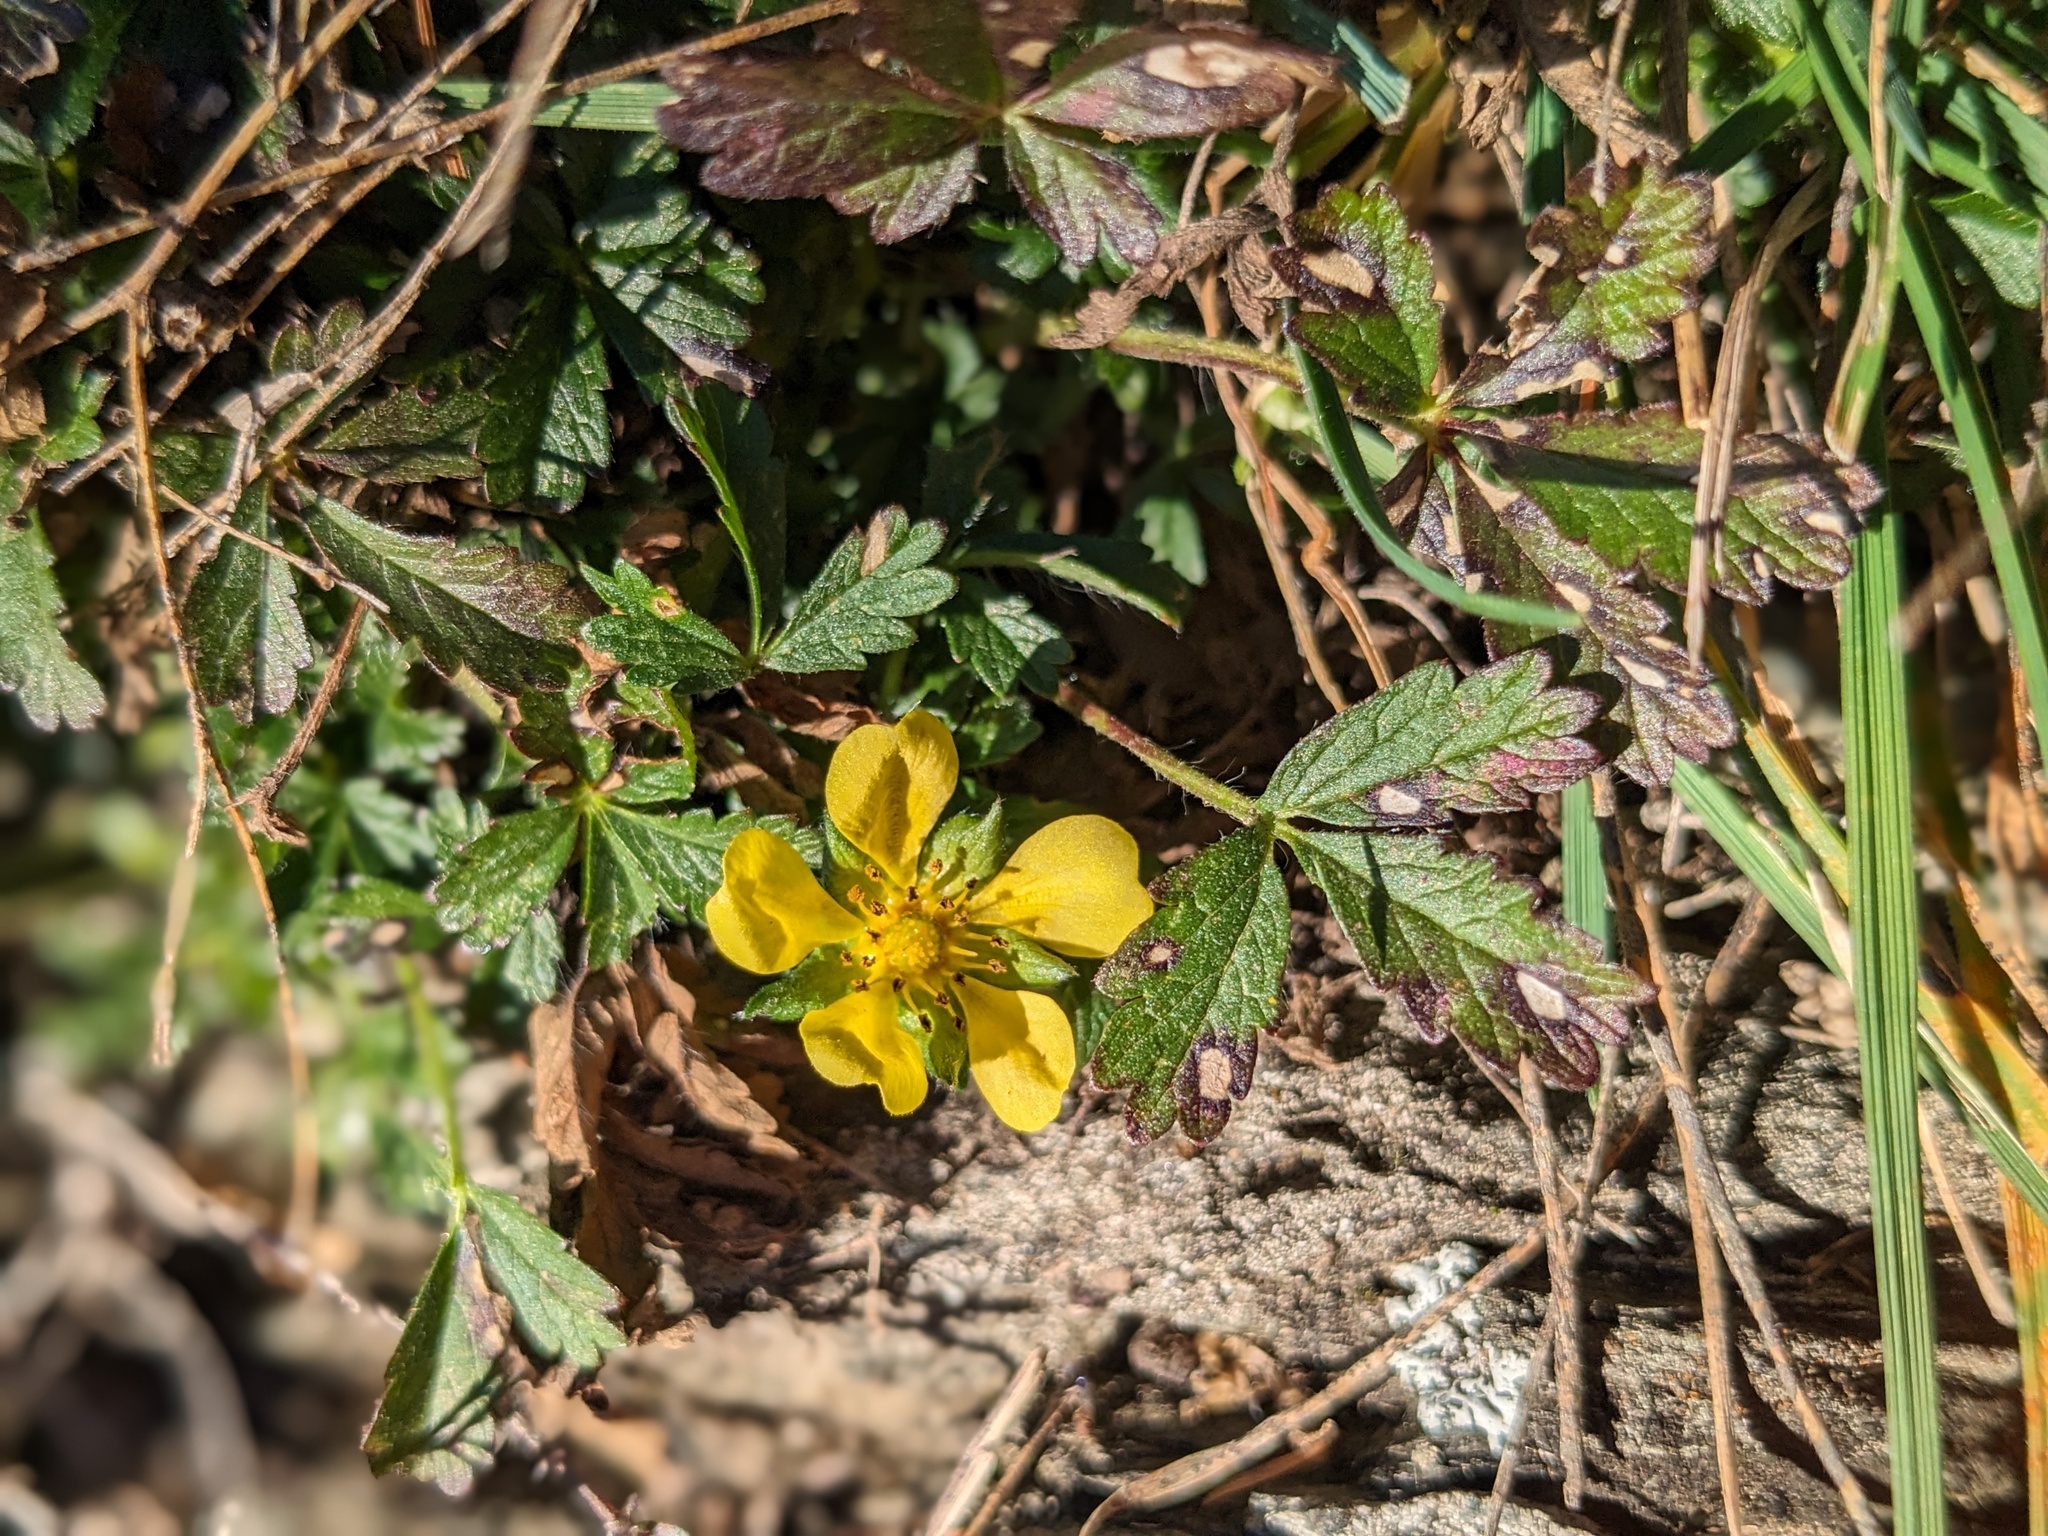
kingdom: Plantae
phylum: Tracheophyta
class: Magnoliopsida
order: Rosales
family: Rosaceae
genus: Potentilla
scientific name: Potentilla reptans
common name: Creeping cinquefoil
